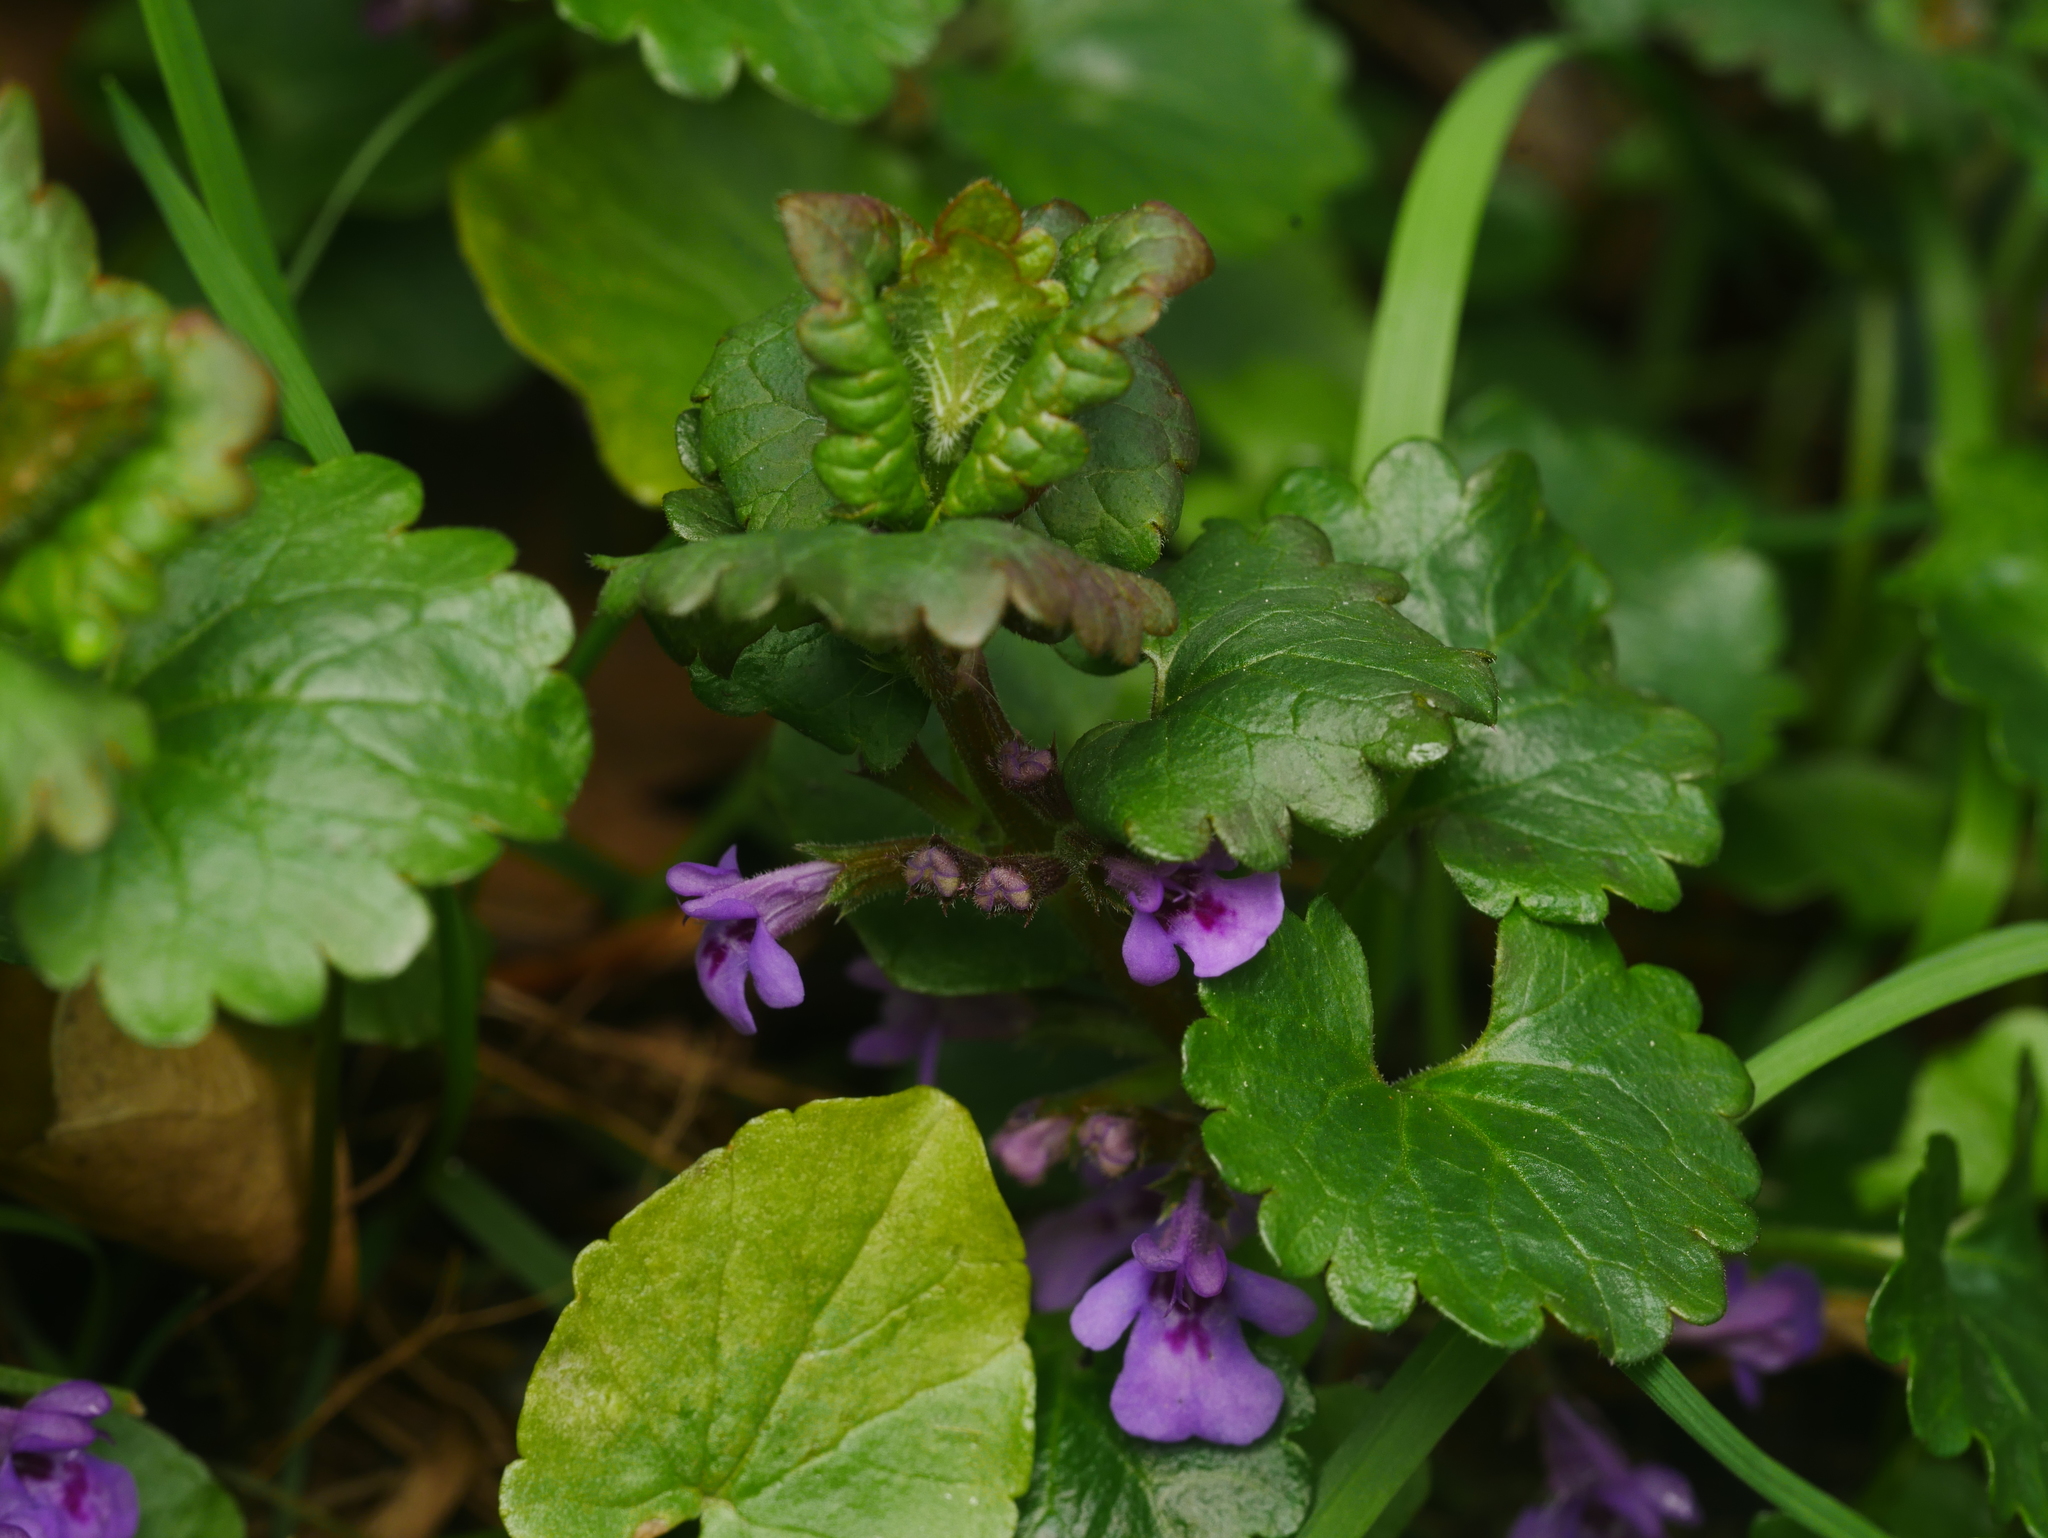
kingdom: Plantae
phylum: Tracheophyta
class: Magnoliopsida
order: Lamiales
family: Lamiaceae
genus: Glechoma
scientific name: Glechoma hederacea
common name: Ground ivy
